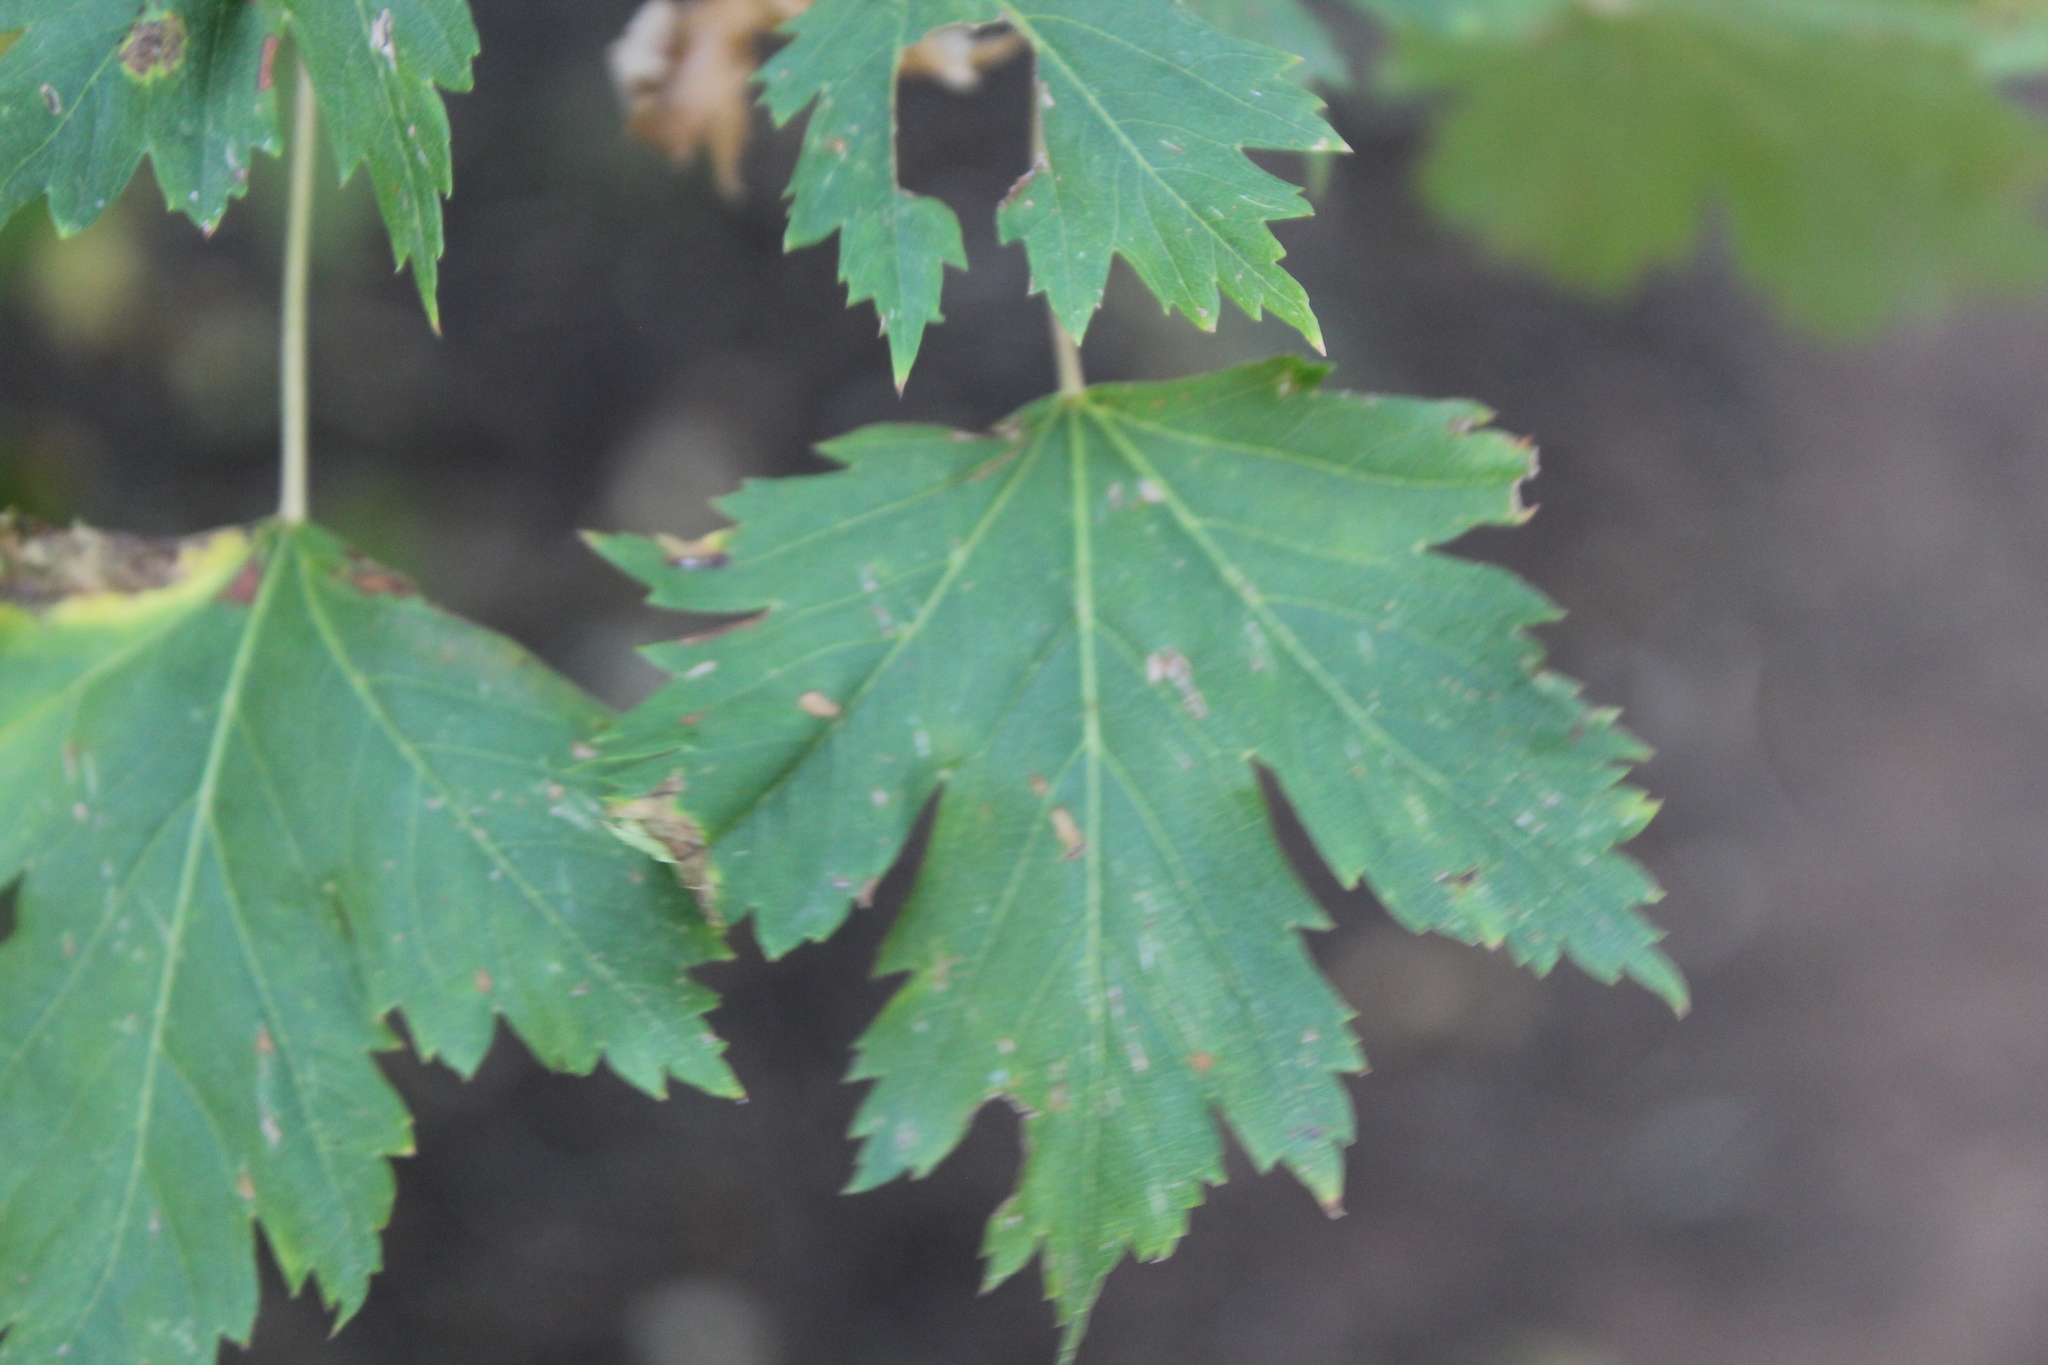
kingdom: Plantae
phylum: Tracheophyta
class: Magnoliopsida
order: Sapindales
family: Sapindaceae
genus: Acer
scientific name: Acer glabrum
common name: Rocky mountain maple
